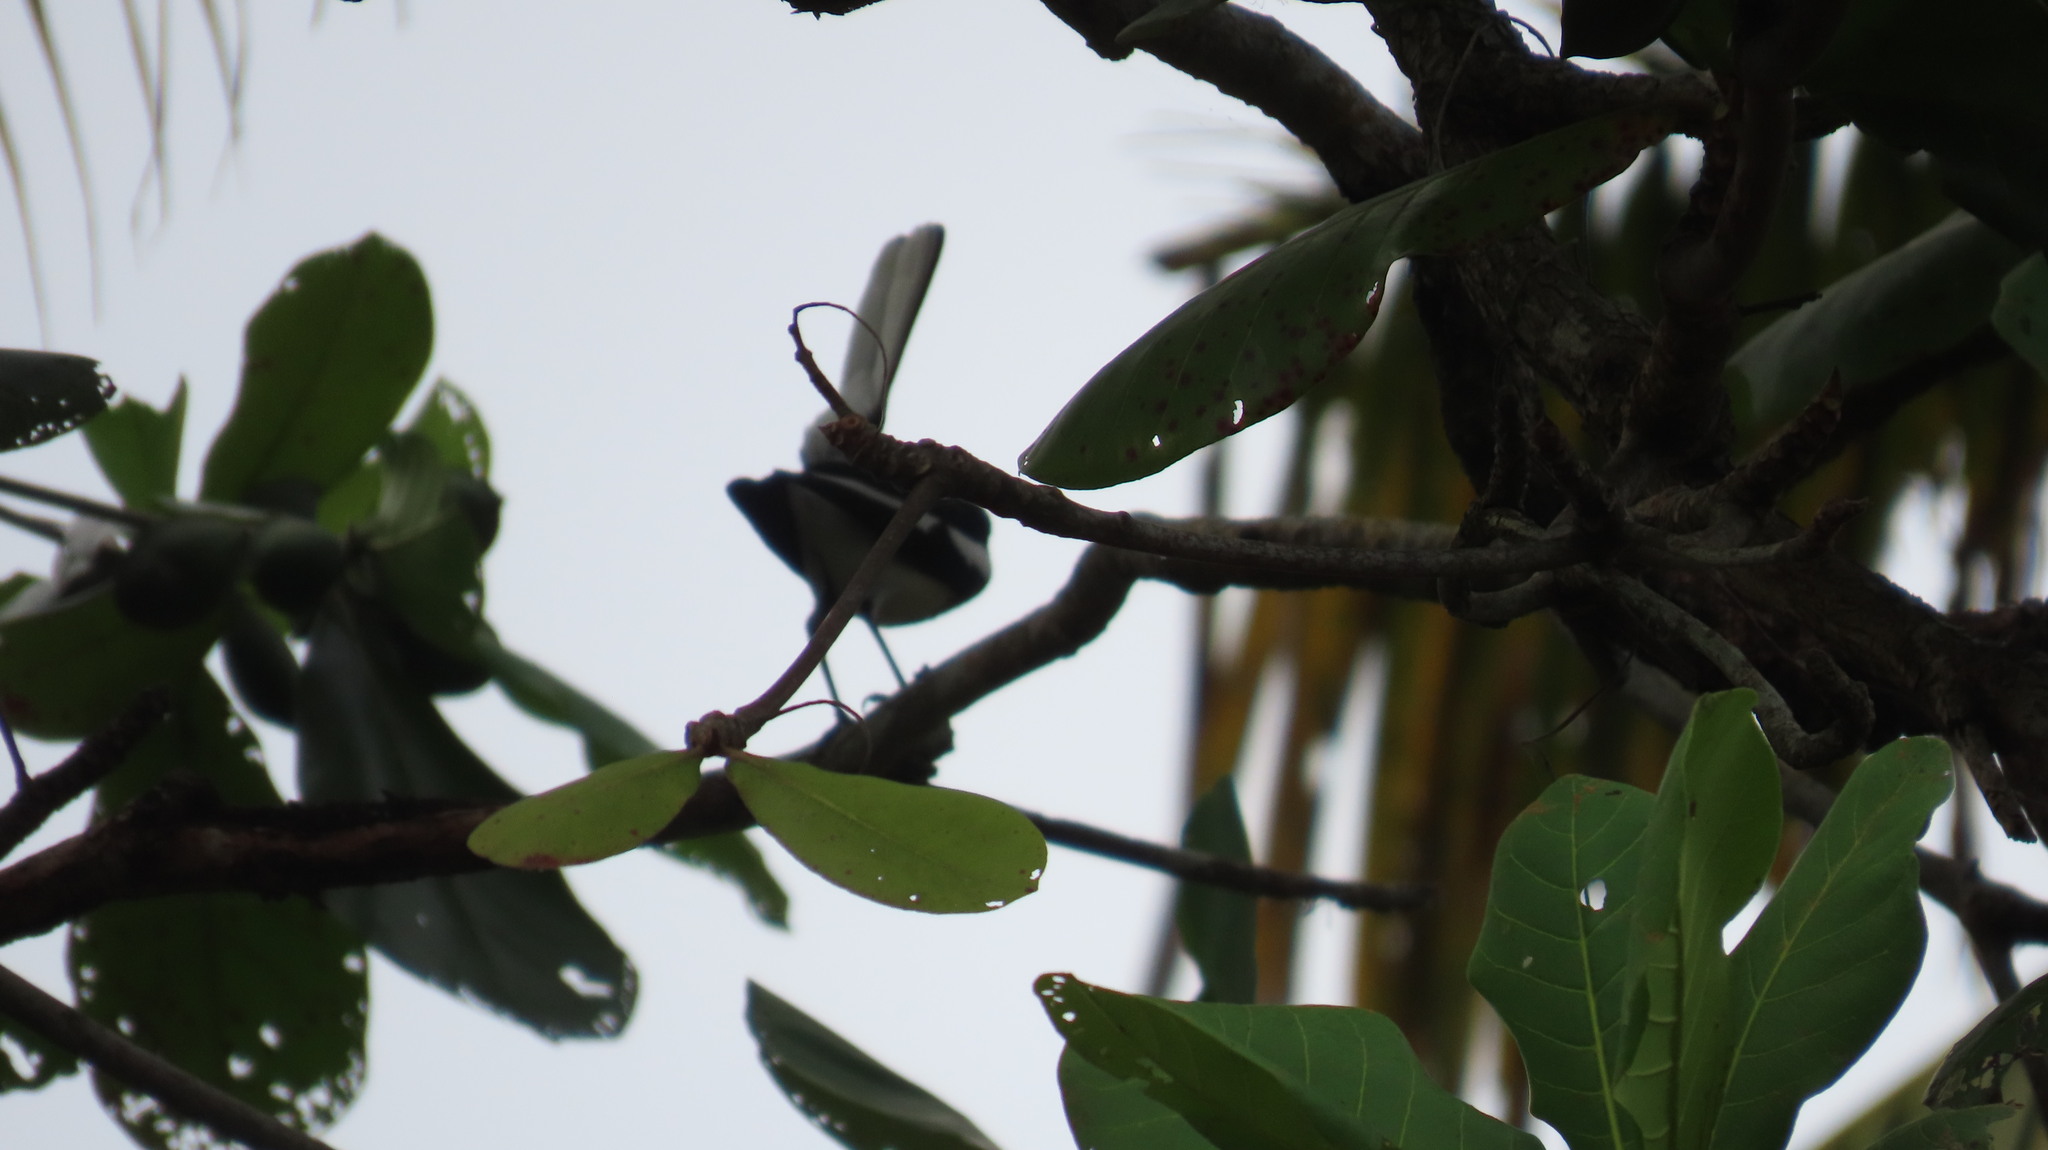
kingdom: Animalia
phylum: Chordata
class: Aves
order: Passeriformes
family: Muscicapidae
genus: Copsychus
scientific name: Copsychus saularis
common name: Oriental magpie-robin
